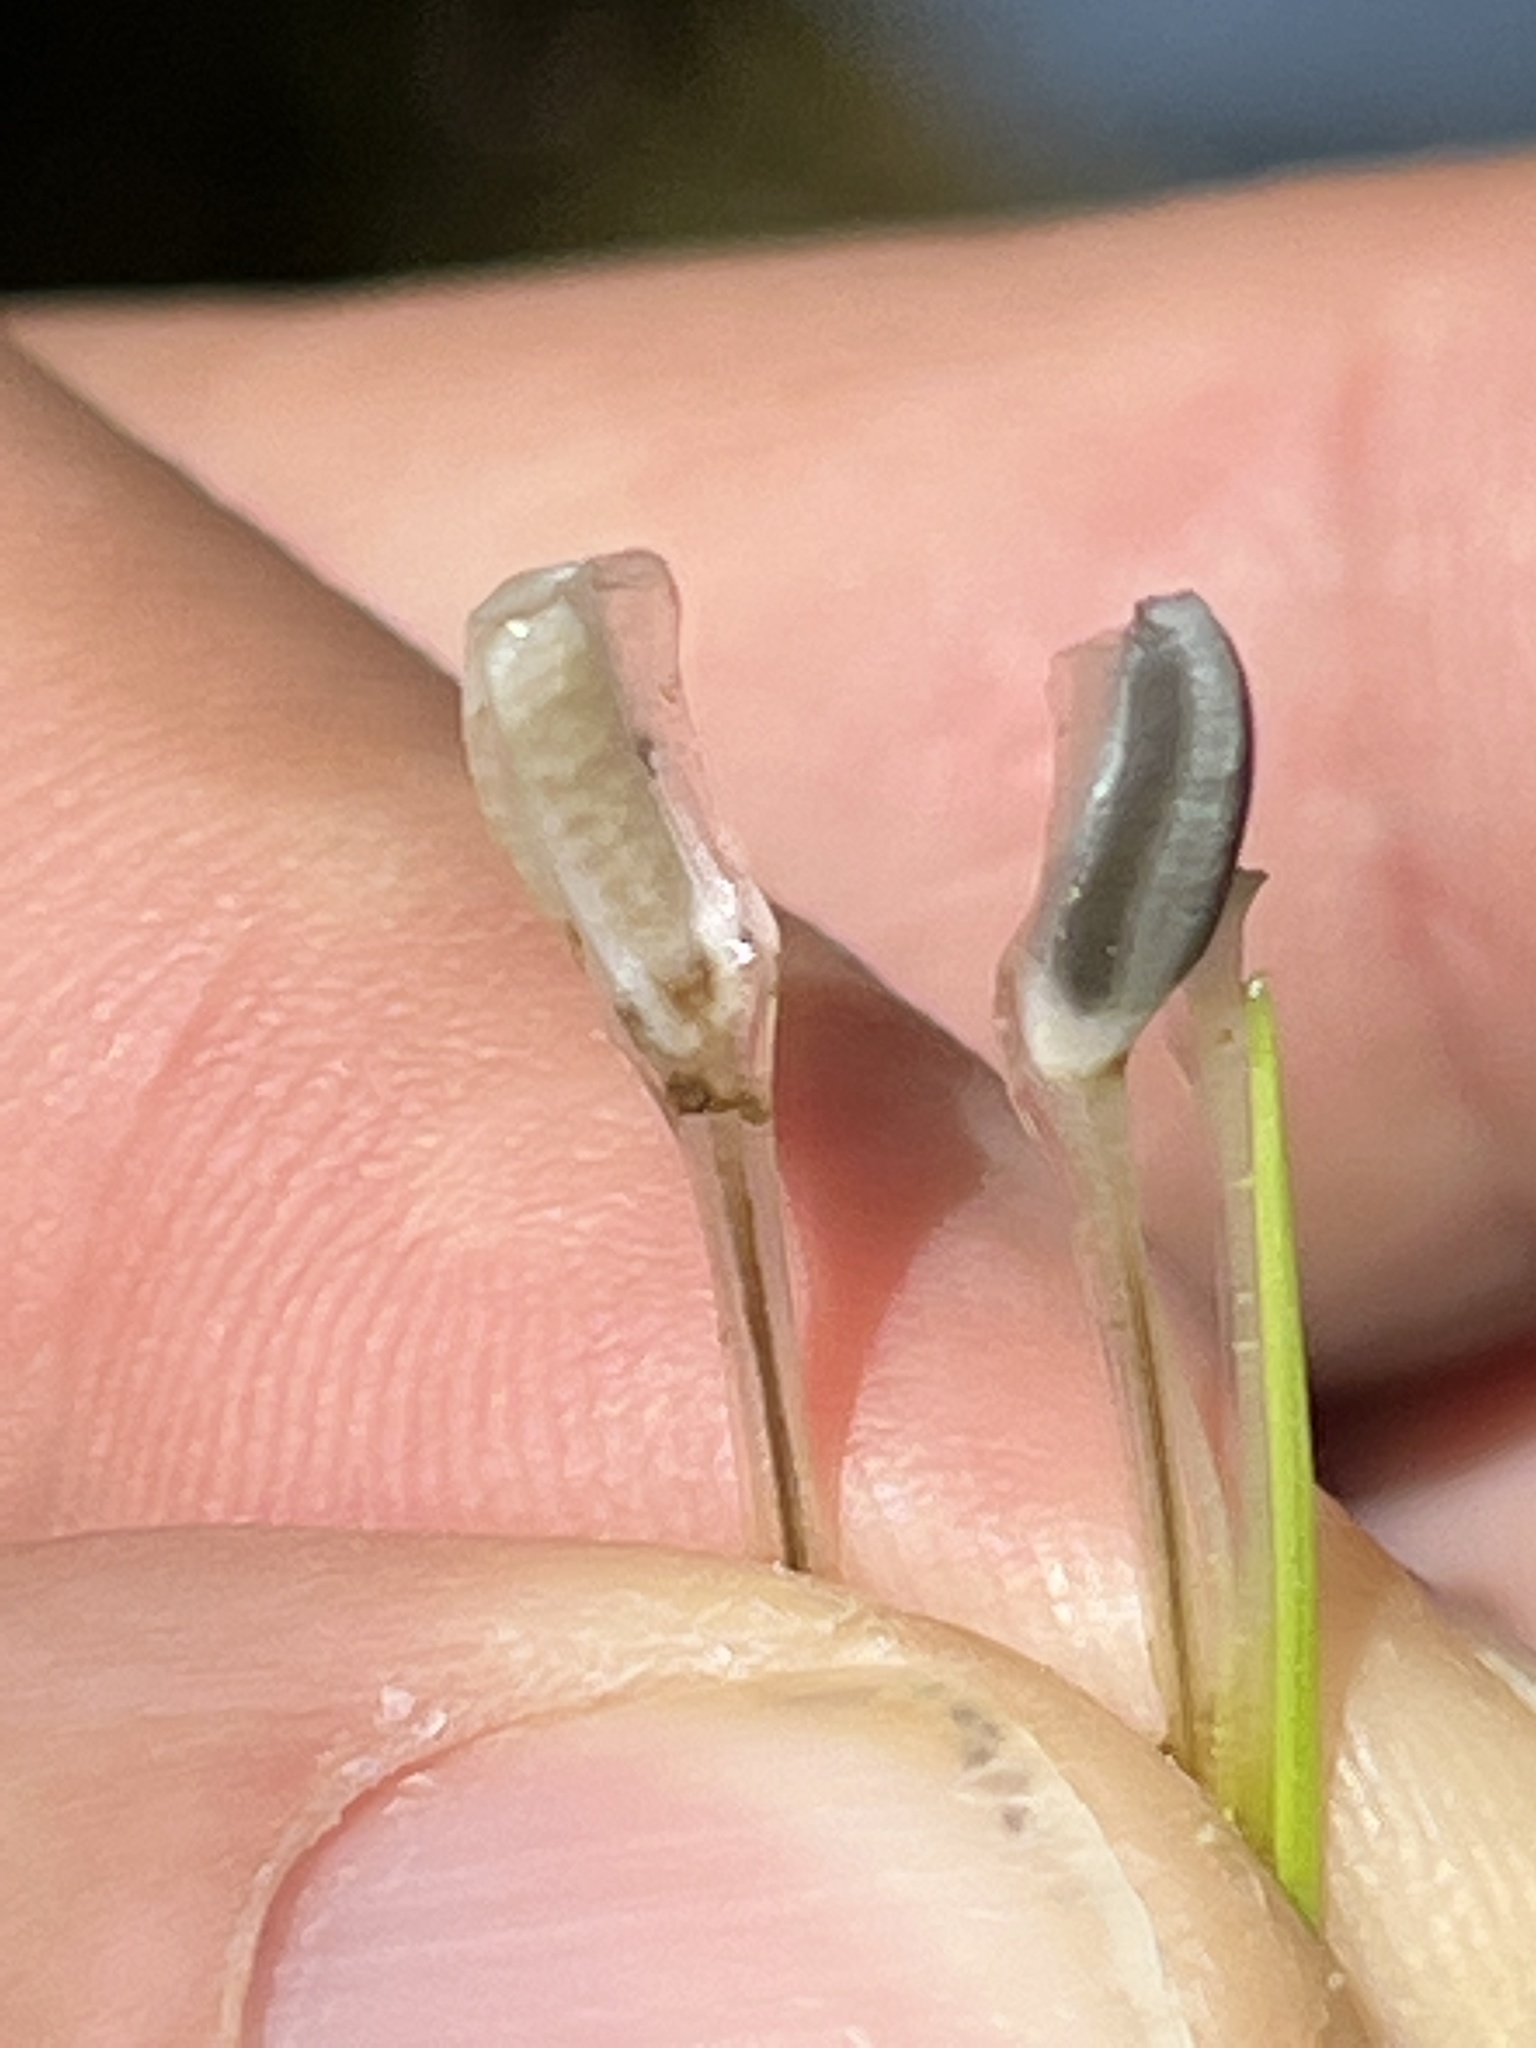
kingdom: Plantae
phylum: Tracheophyta
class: Lycopodiopsida
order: Isoetales
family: Isoetaceae
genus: Isoetes
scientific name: Isoetes nuttallii
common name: Nuttall's quillwort
